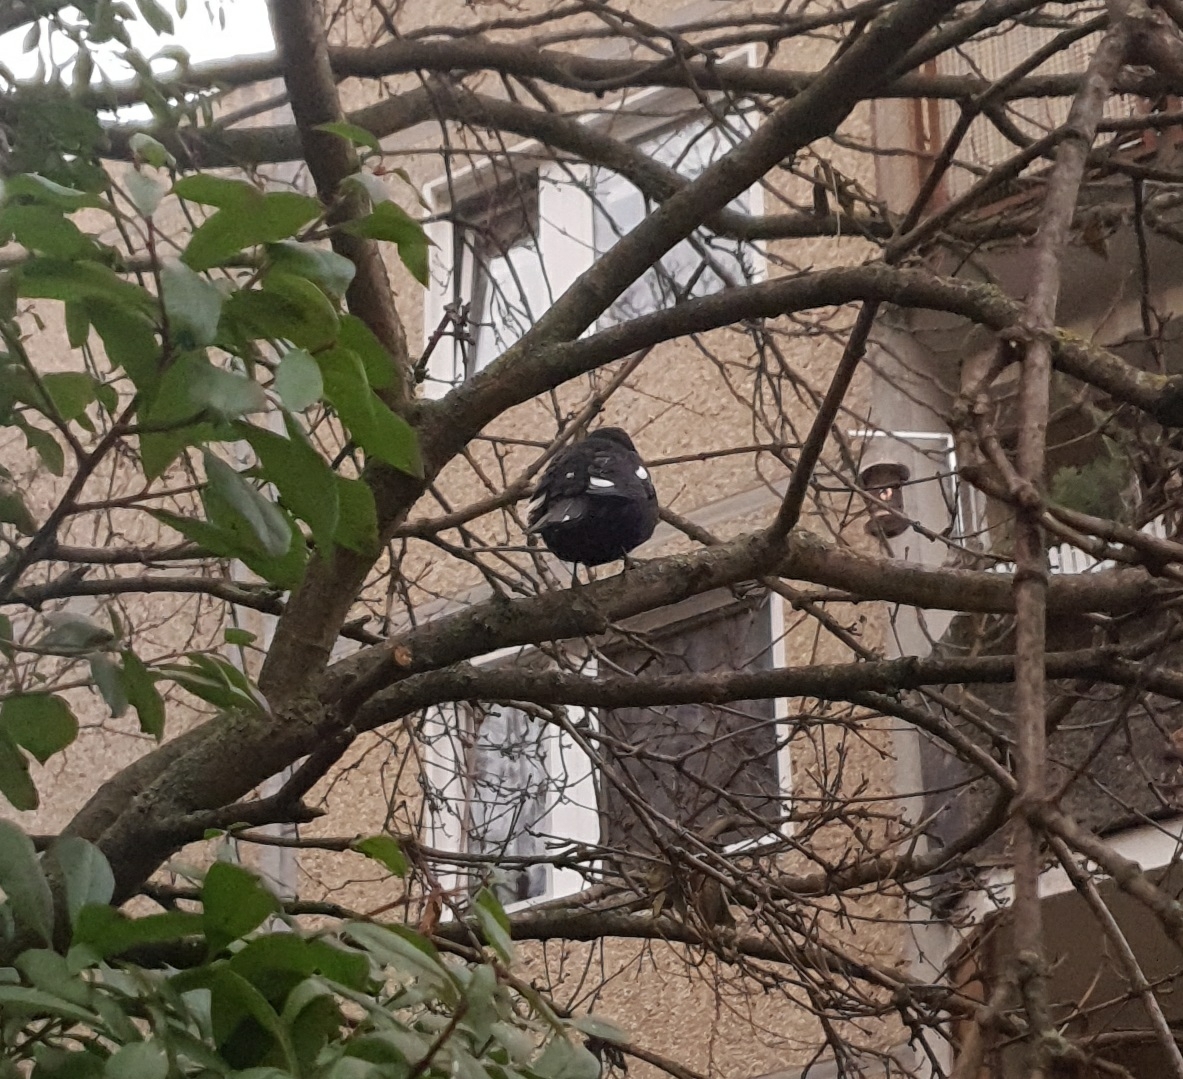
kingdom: Animalia
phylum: Chordata
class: Aves
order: Passeriformes
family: Turdidae
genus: Turdus
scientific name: Turdus merula
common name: Common blackbird
